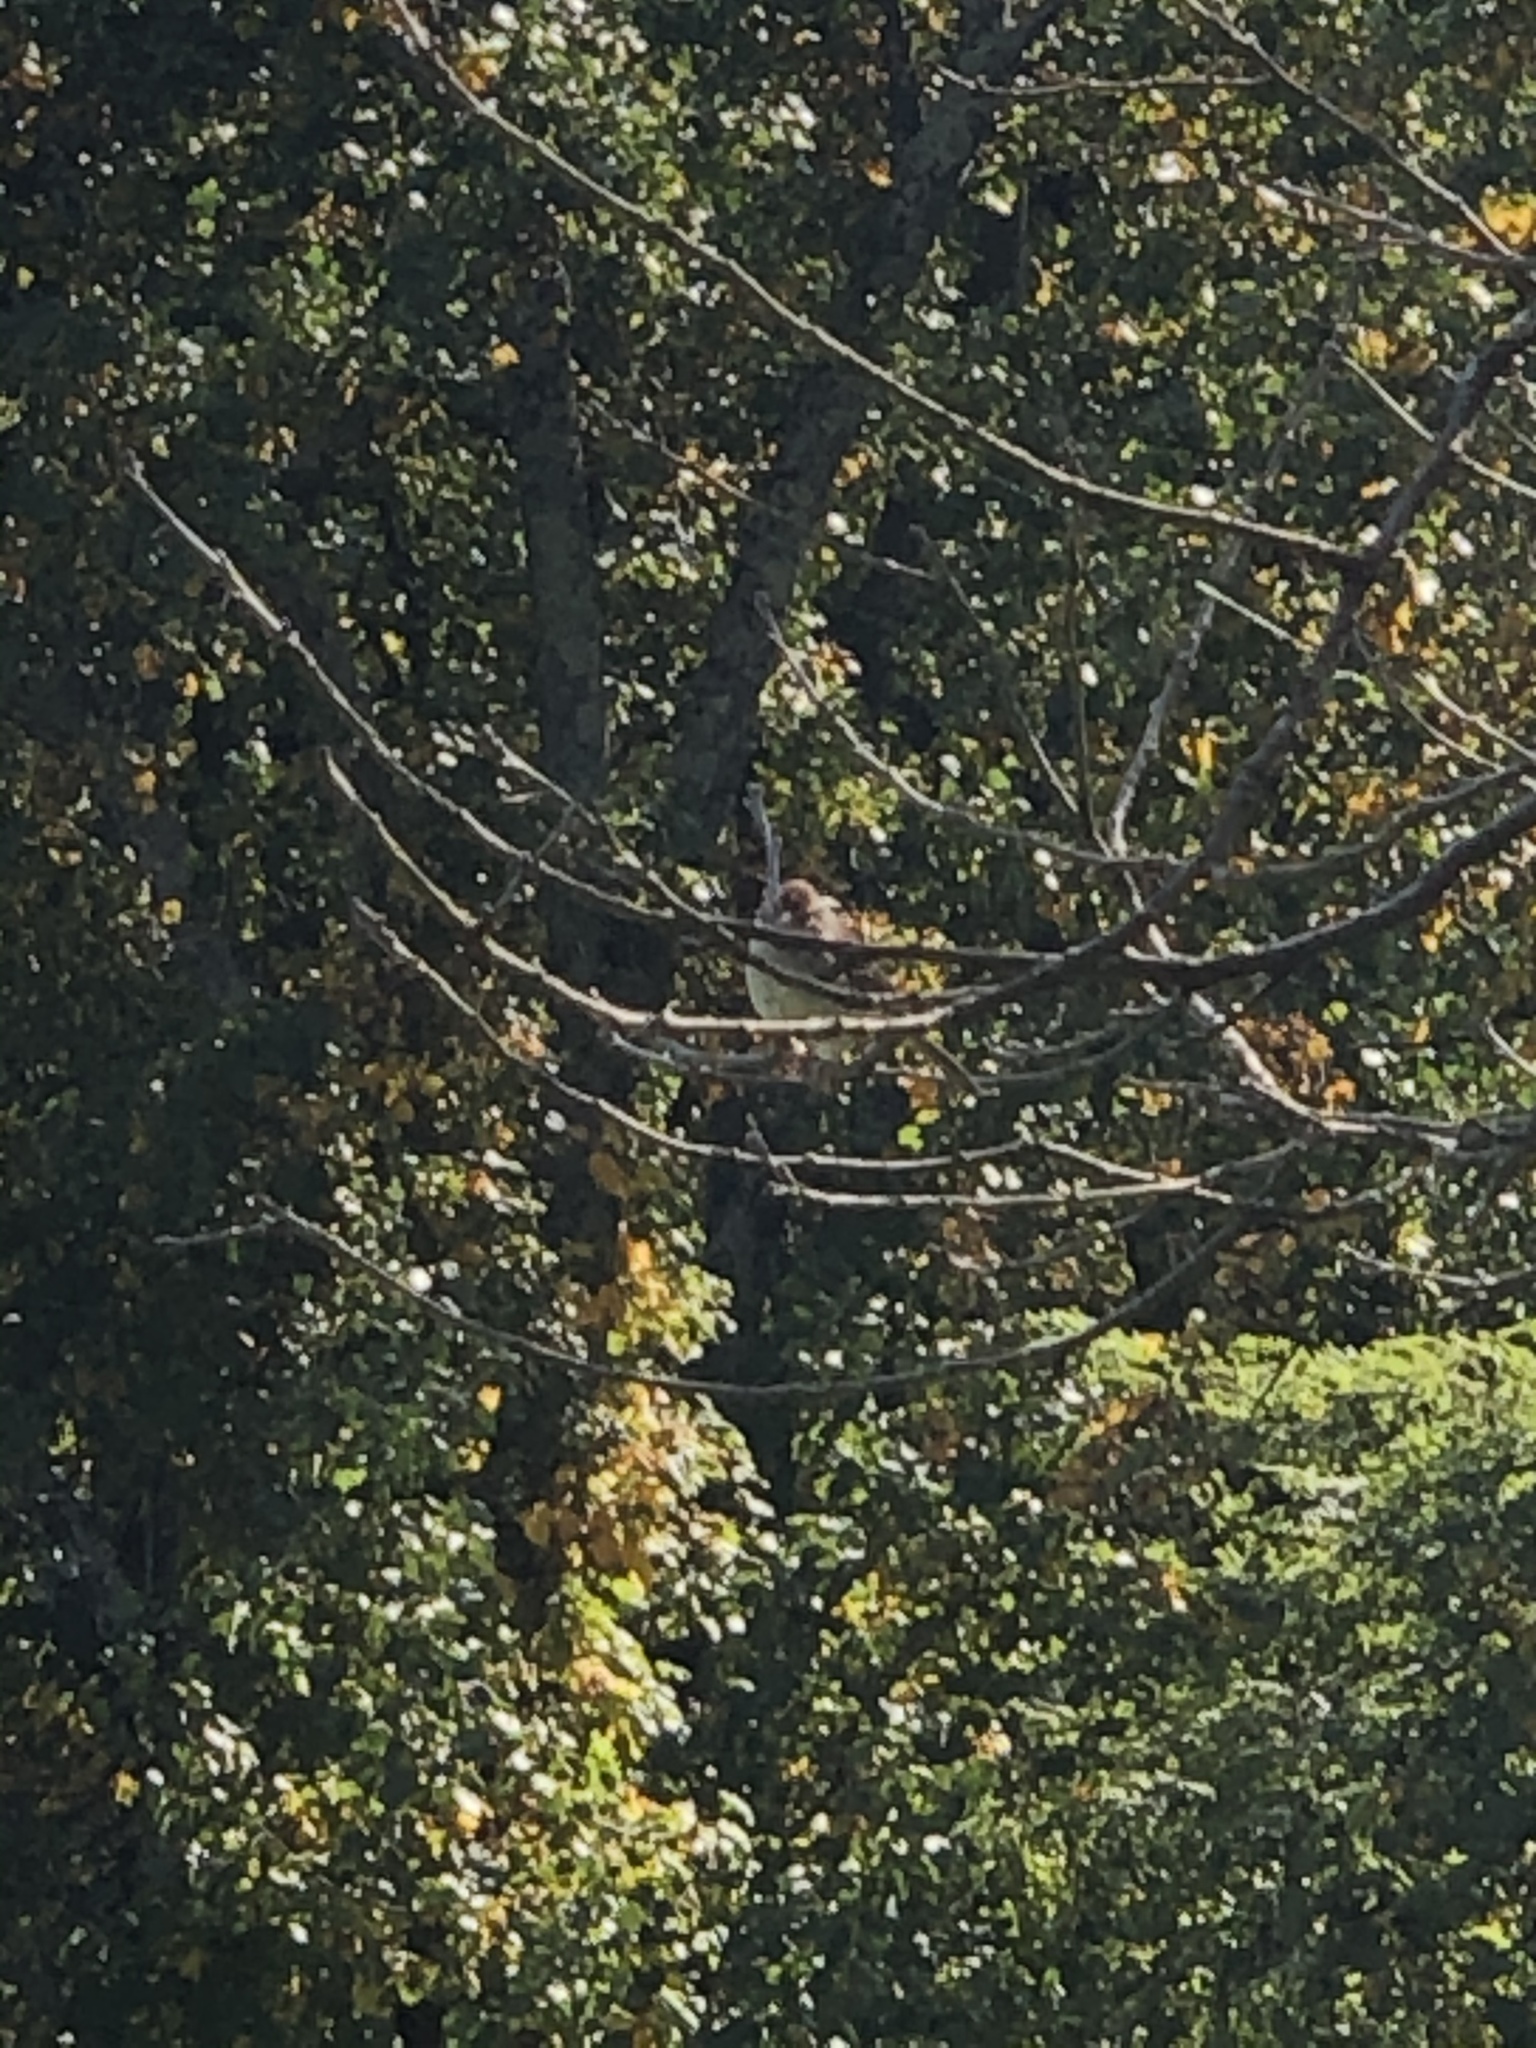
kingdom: Animalia
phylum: Chordata
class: Aves
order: Passeriformes
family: Passerellidae
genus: Spizella
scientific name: Spizella passerina
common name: Chipping sparrow
